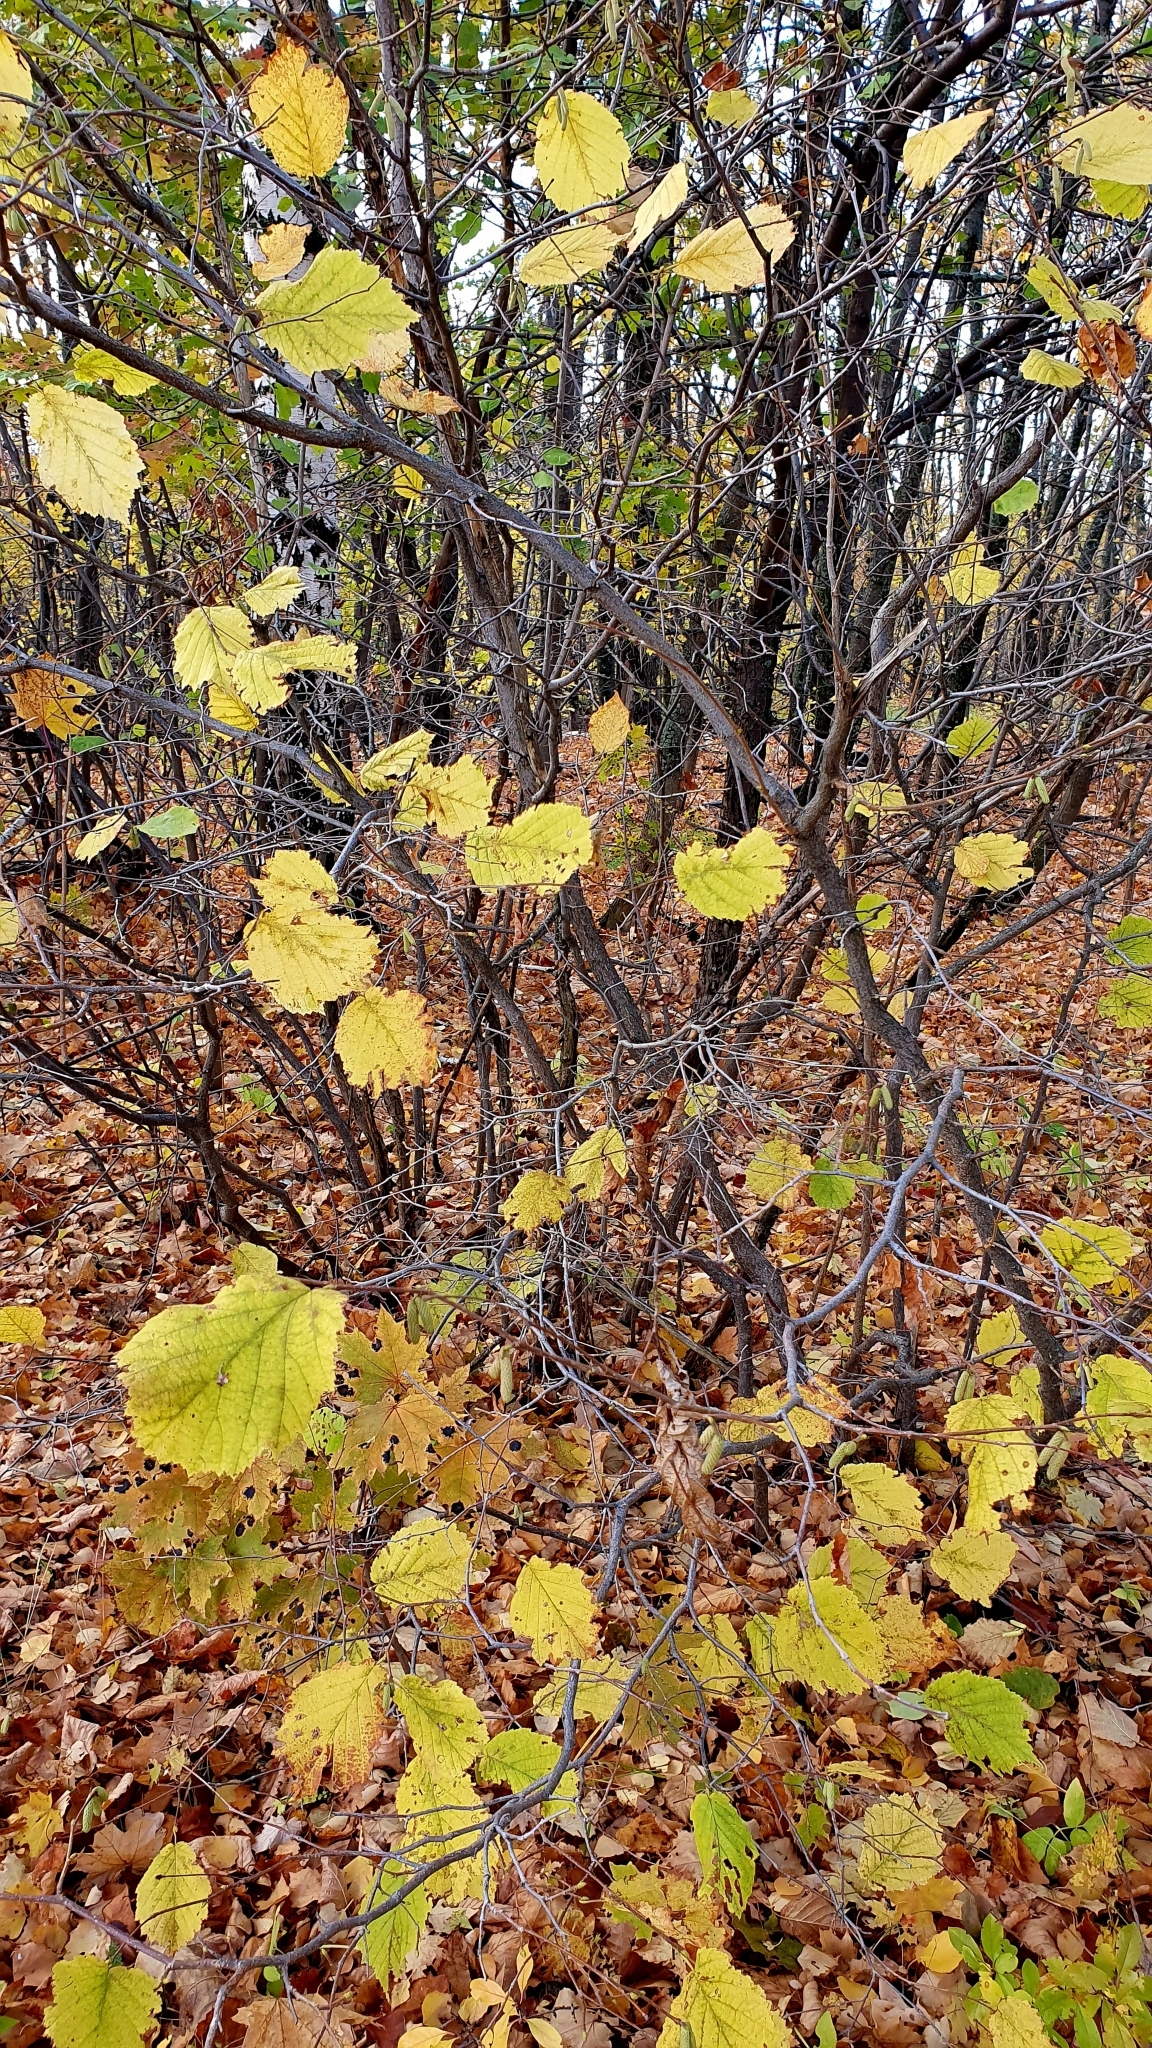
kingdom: Plantae
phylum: Tracheophyta
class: Magnoliopsida
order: Fagales
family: Betulaceae
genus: Corylus
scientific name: Corylus avellana
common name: European hazel
